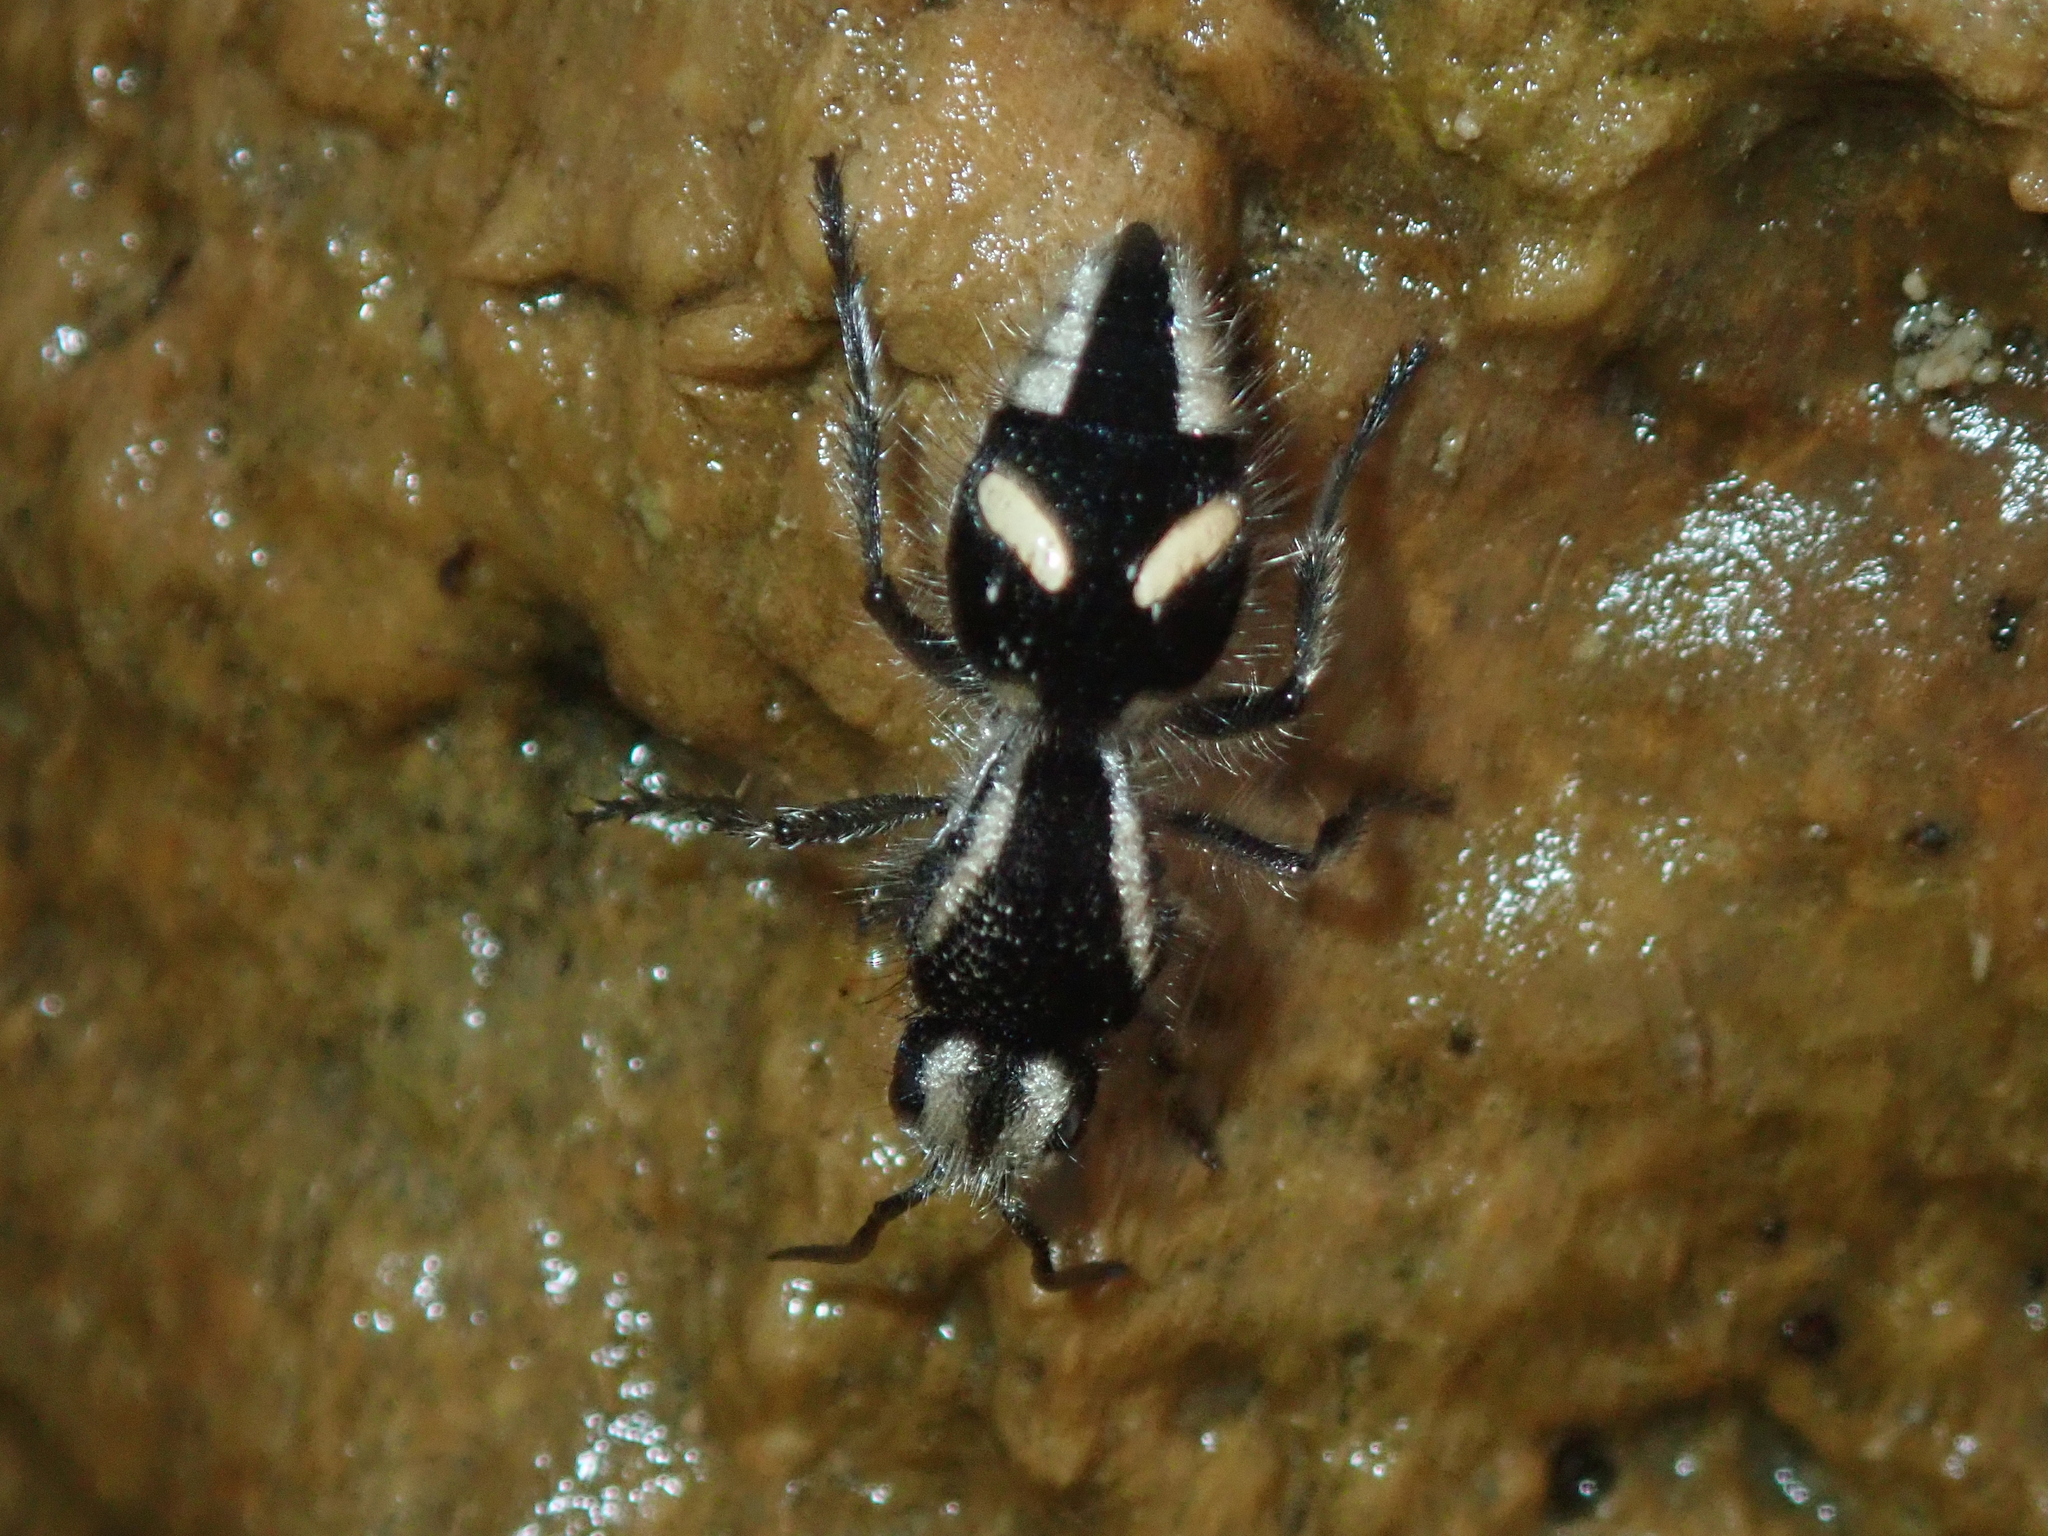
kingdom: Animalia
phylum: Arthropoda
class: Insecta
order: Hymenoptera
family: Mutillidae
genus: Hoplomutilla
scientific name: Hoplomutilla
